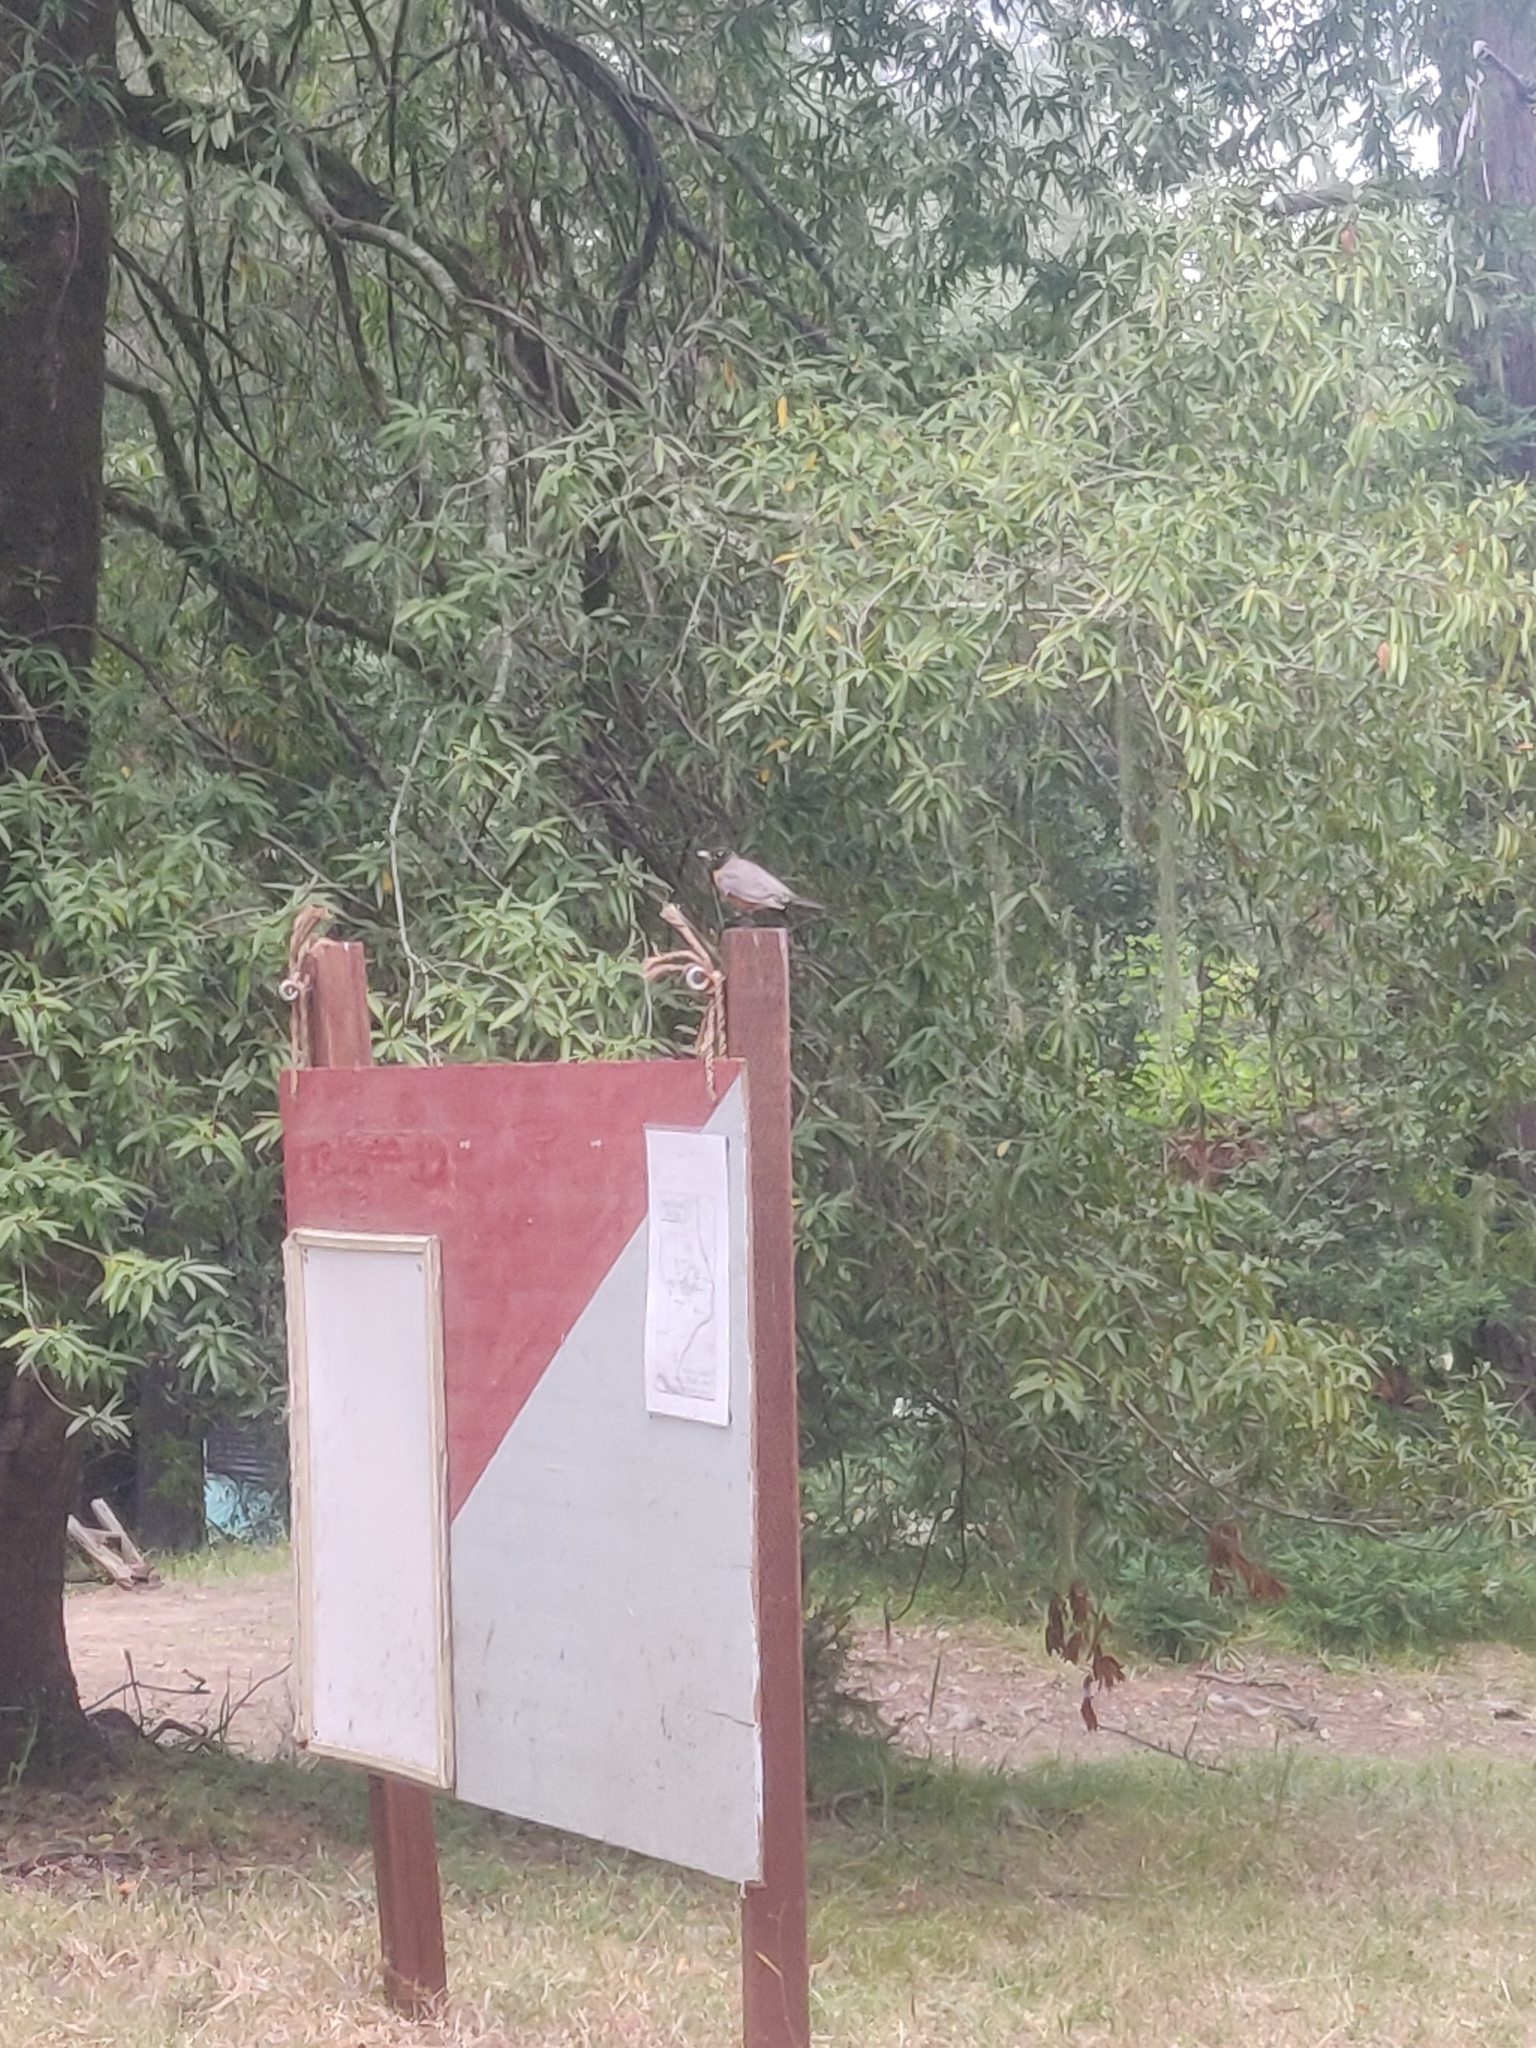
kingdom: Animalia
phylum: Chordata
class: Aves
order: Passeriformes
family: Turdidae
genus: Turdus
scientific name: Turdus migratorius
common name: American robin
